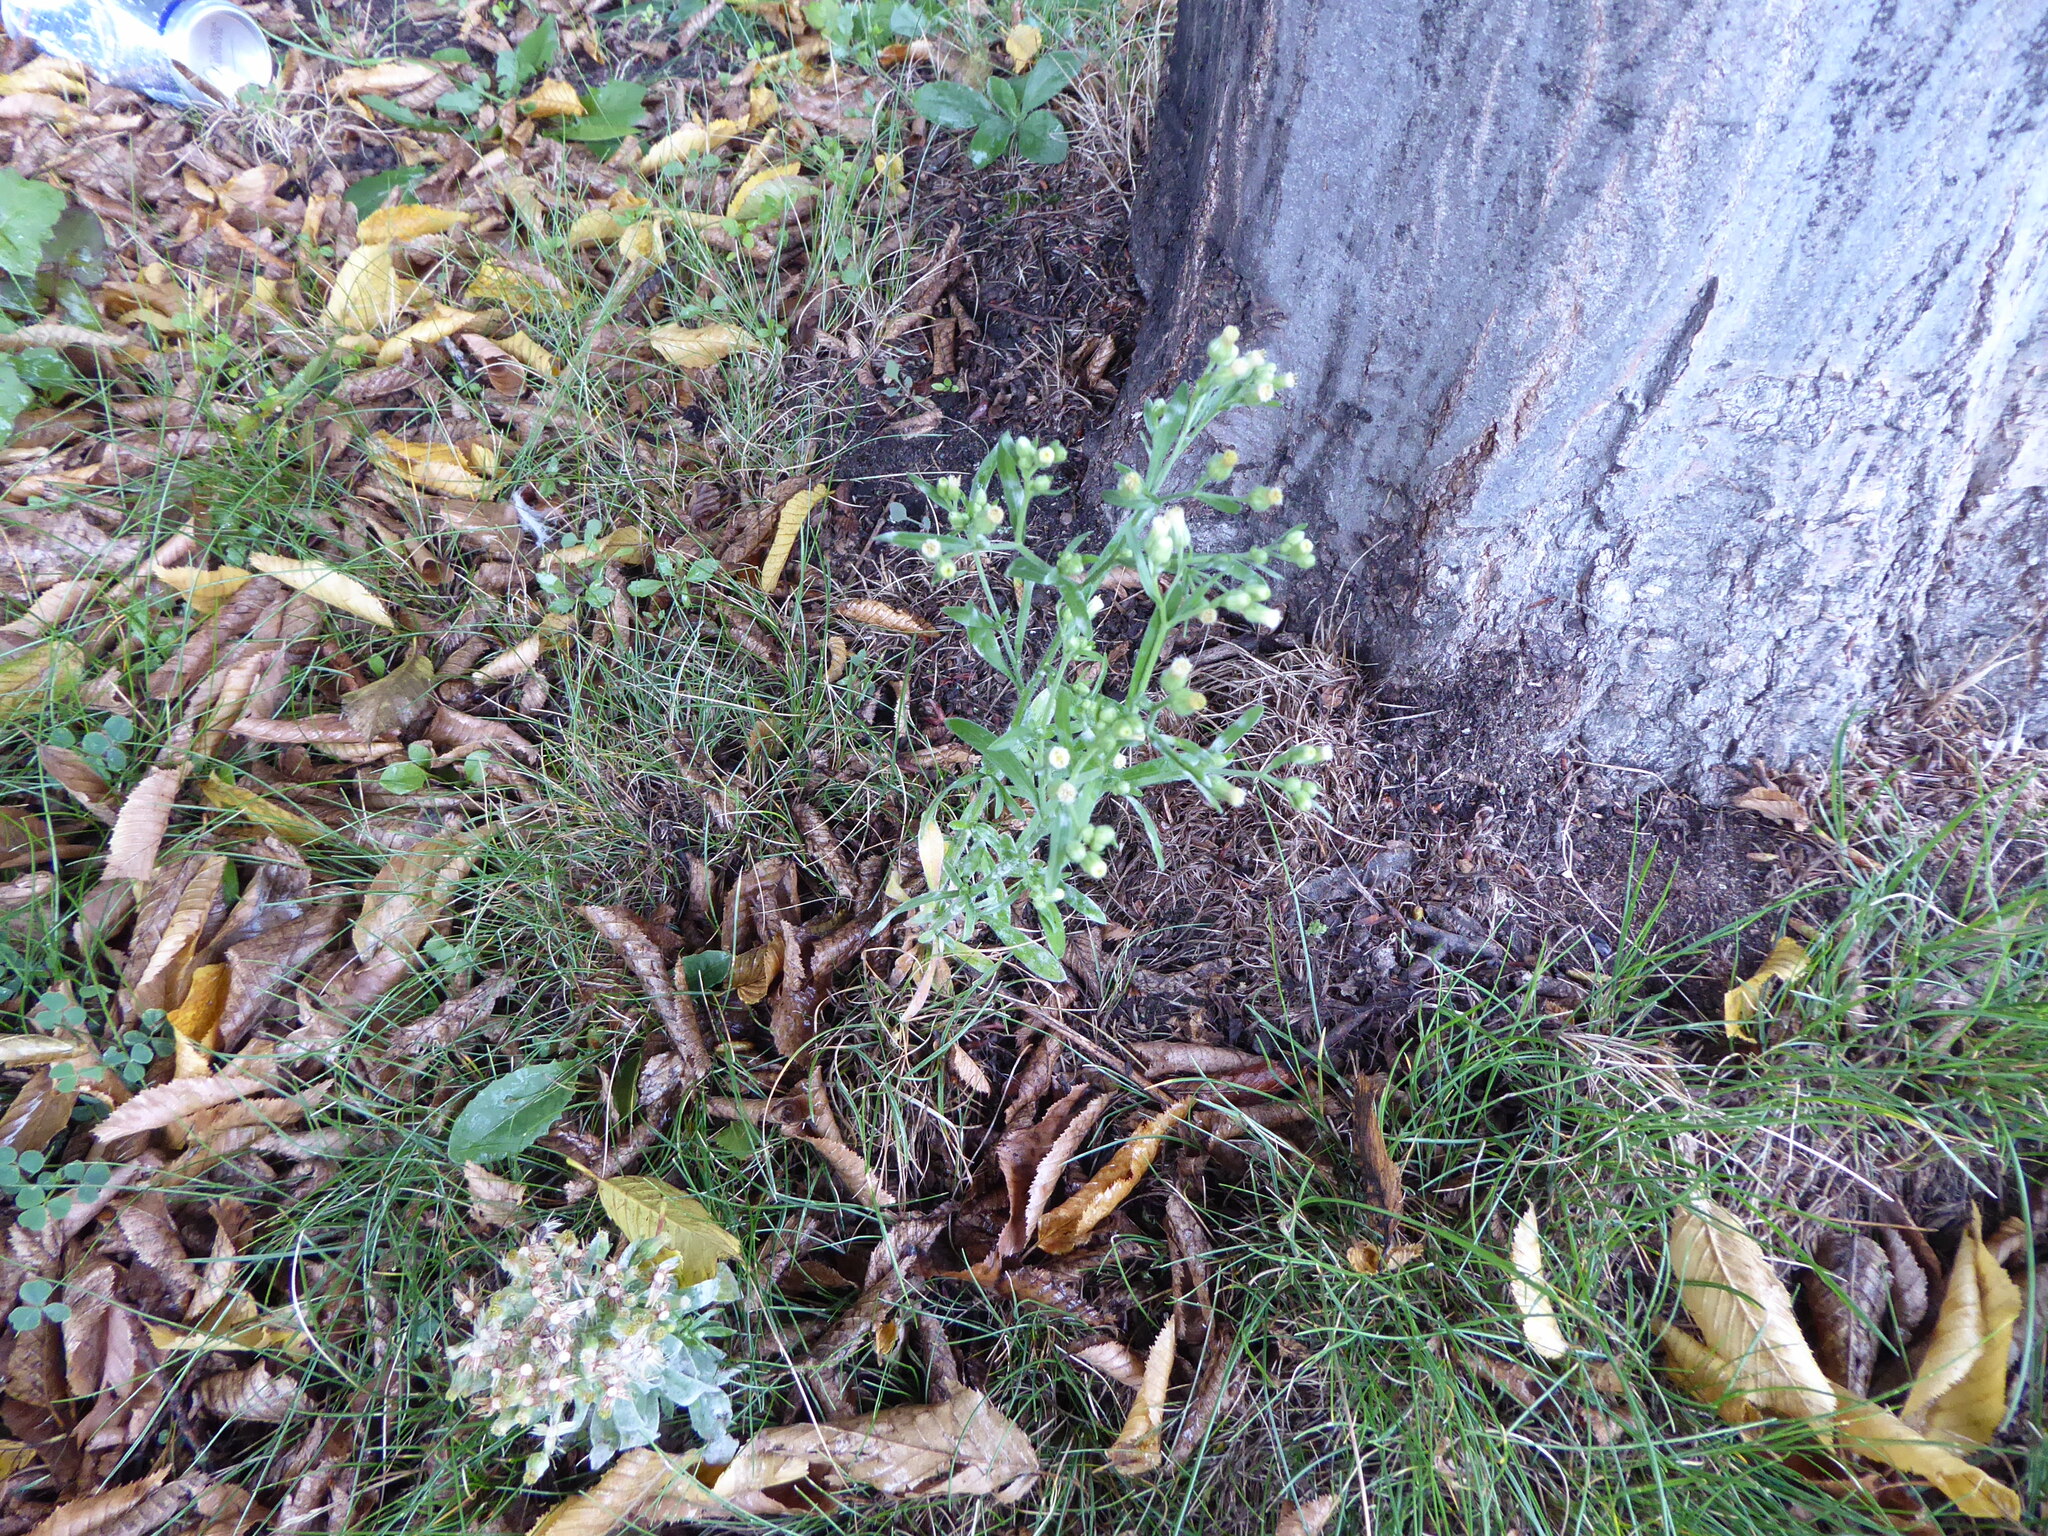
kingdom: Plantae
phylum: Tracheophyta
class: Magnoliopsida
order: Asterales
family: Asteraceae
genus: Erigeron
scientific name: Erigeron sumatrensis
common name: Daisy
